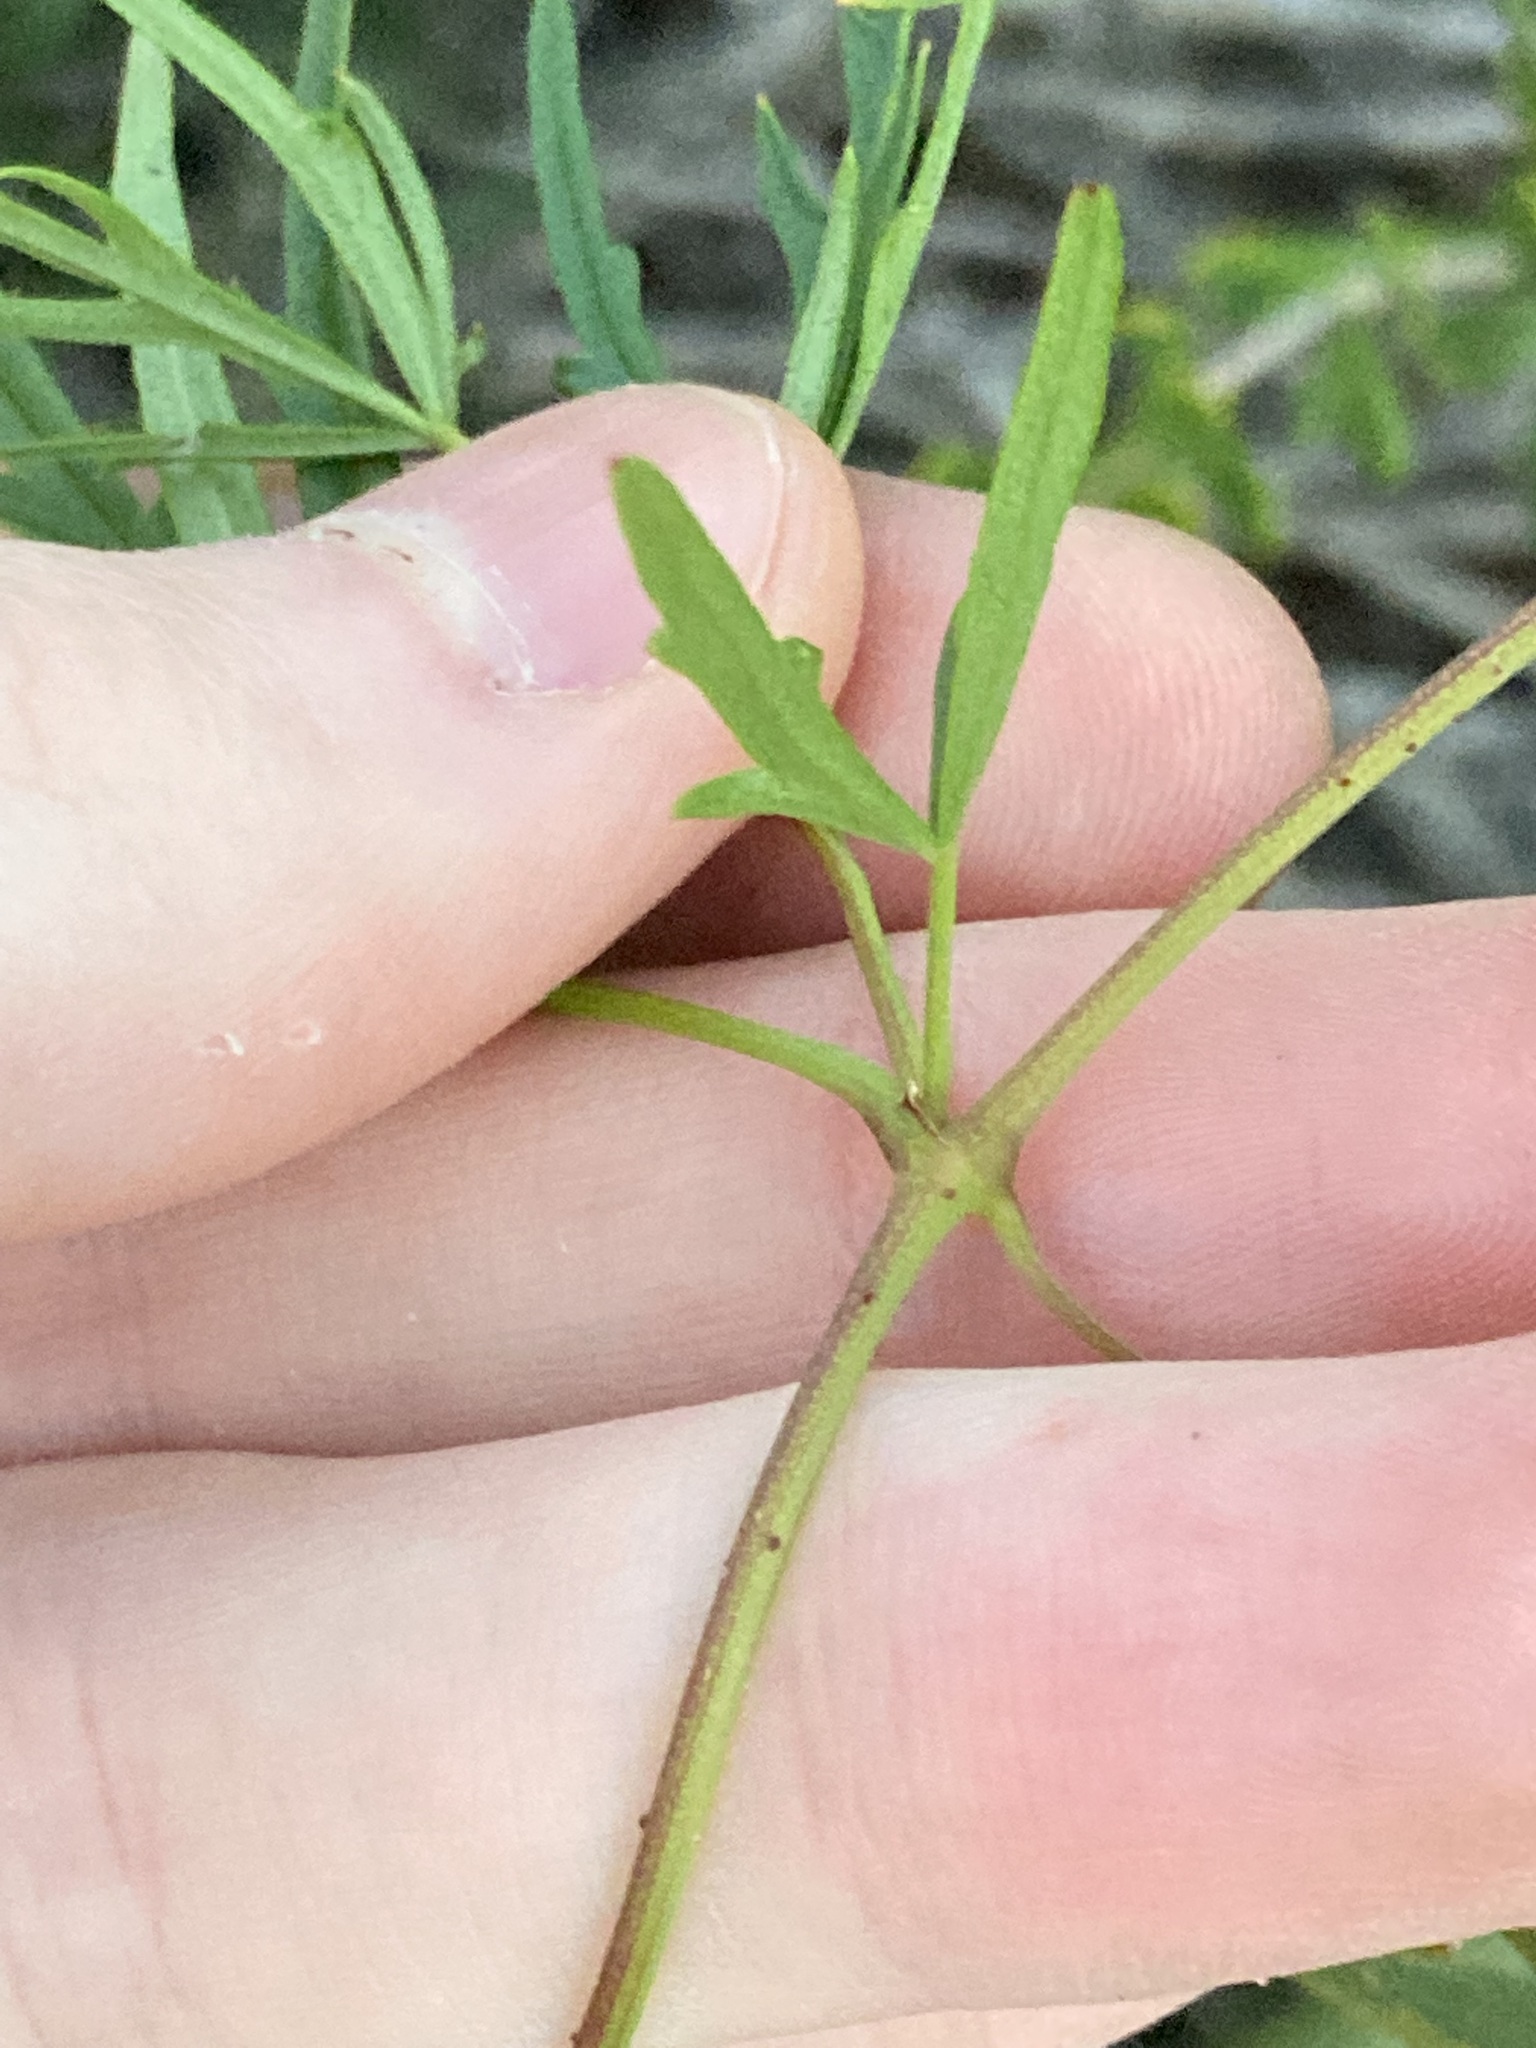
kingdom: Plantae
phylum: Tracheophyta
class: Magnoliopsida
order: Vitales
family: Vitaceae
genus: Clematicissus
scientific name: Clematicissus angustissima
